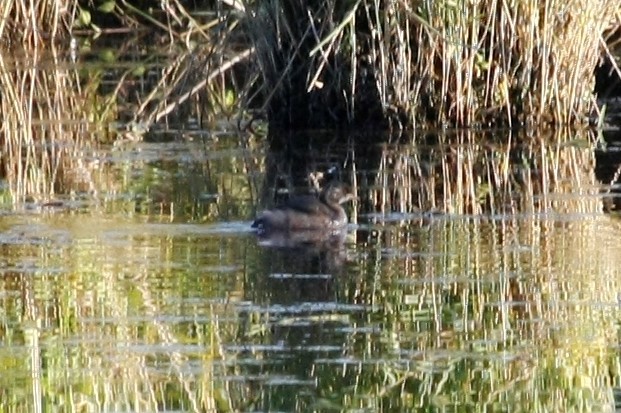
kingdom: Animalia
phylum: Chordata
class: Aves
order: Podicipediformes
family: Podicipedidae
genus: Tachybaptus
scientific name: Tachybaptus ruficollis
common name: Little grebe
